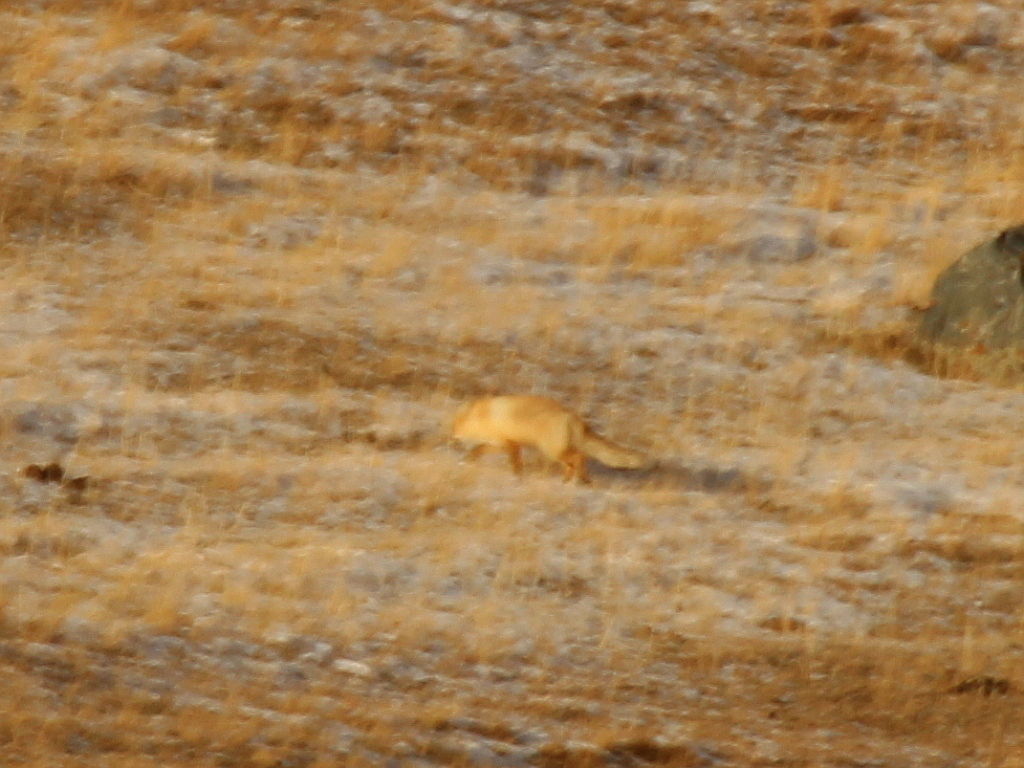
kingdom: Animalia
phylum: Chordata
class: Mammalia
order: Carnivora
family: Canidae
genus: Vulpes
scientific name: Vulpes vulpes
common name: Red fox
